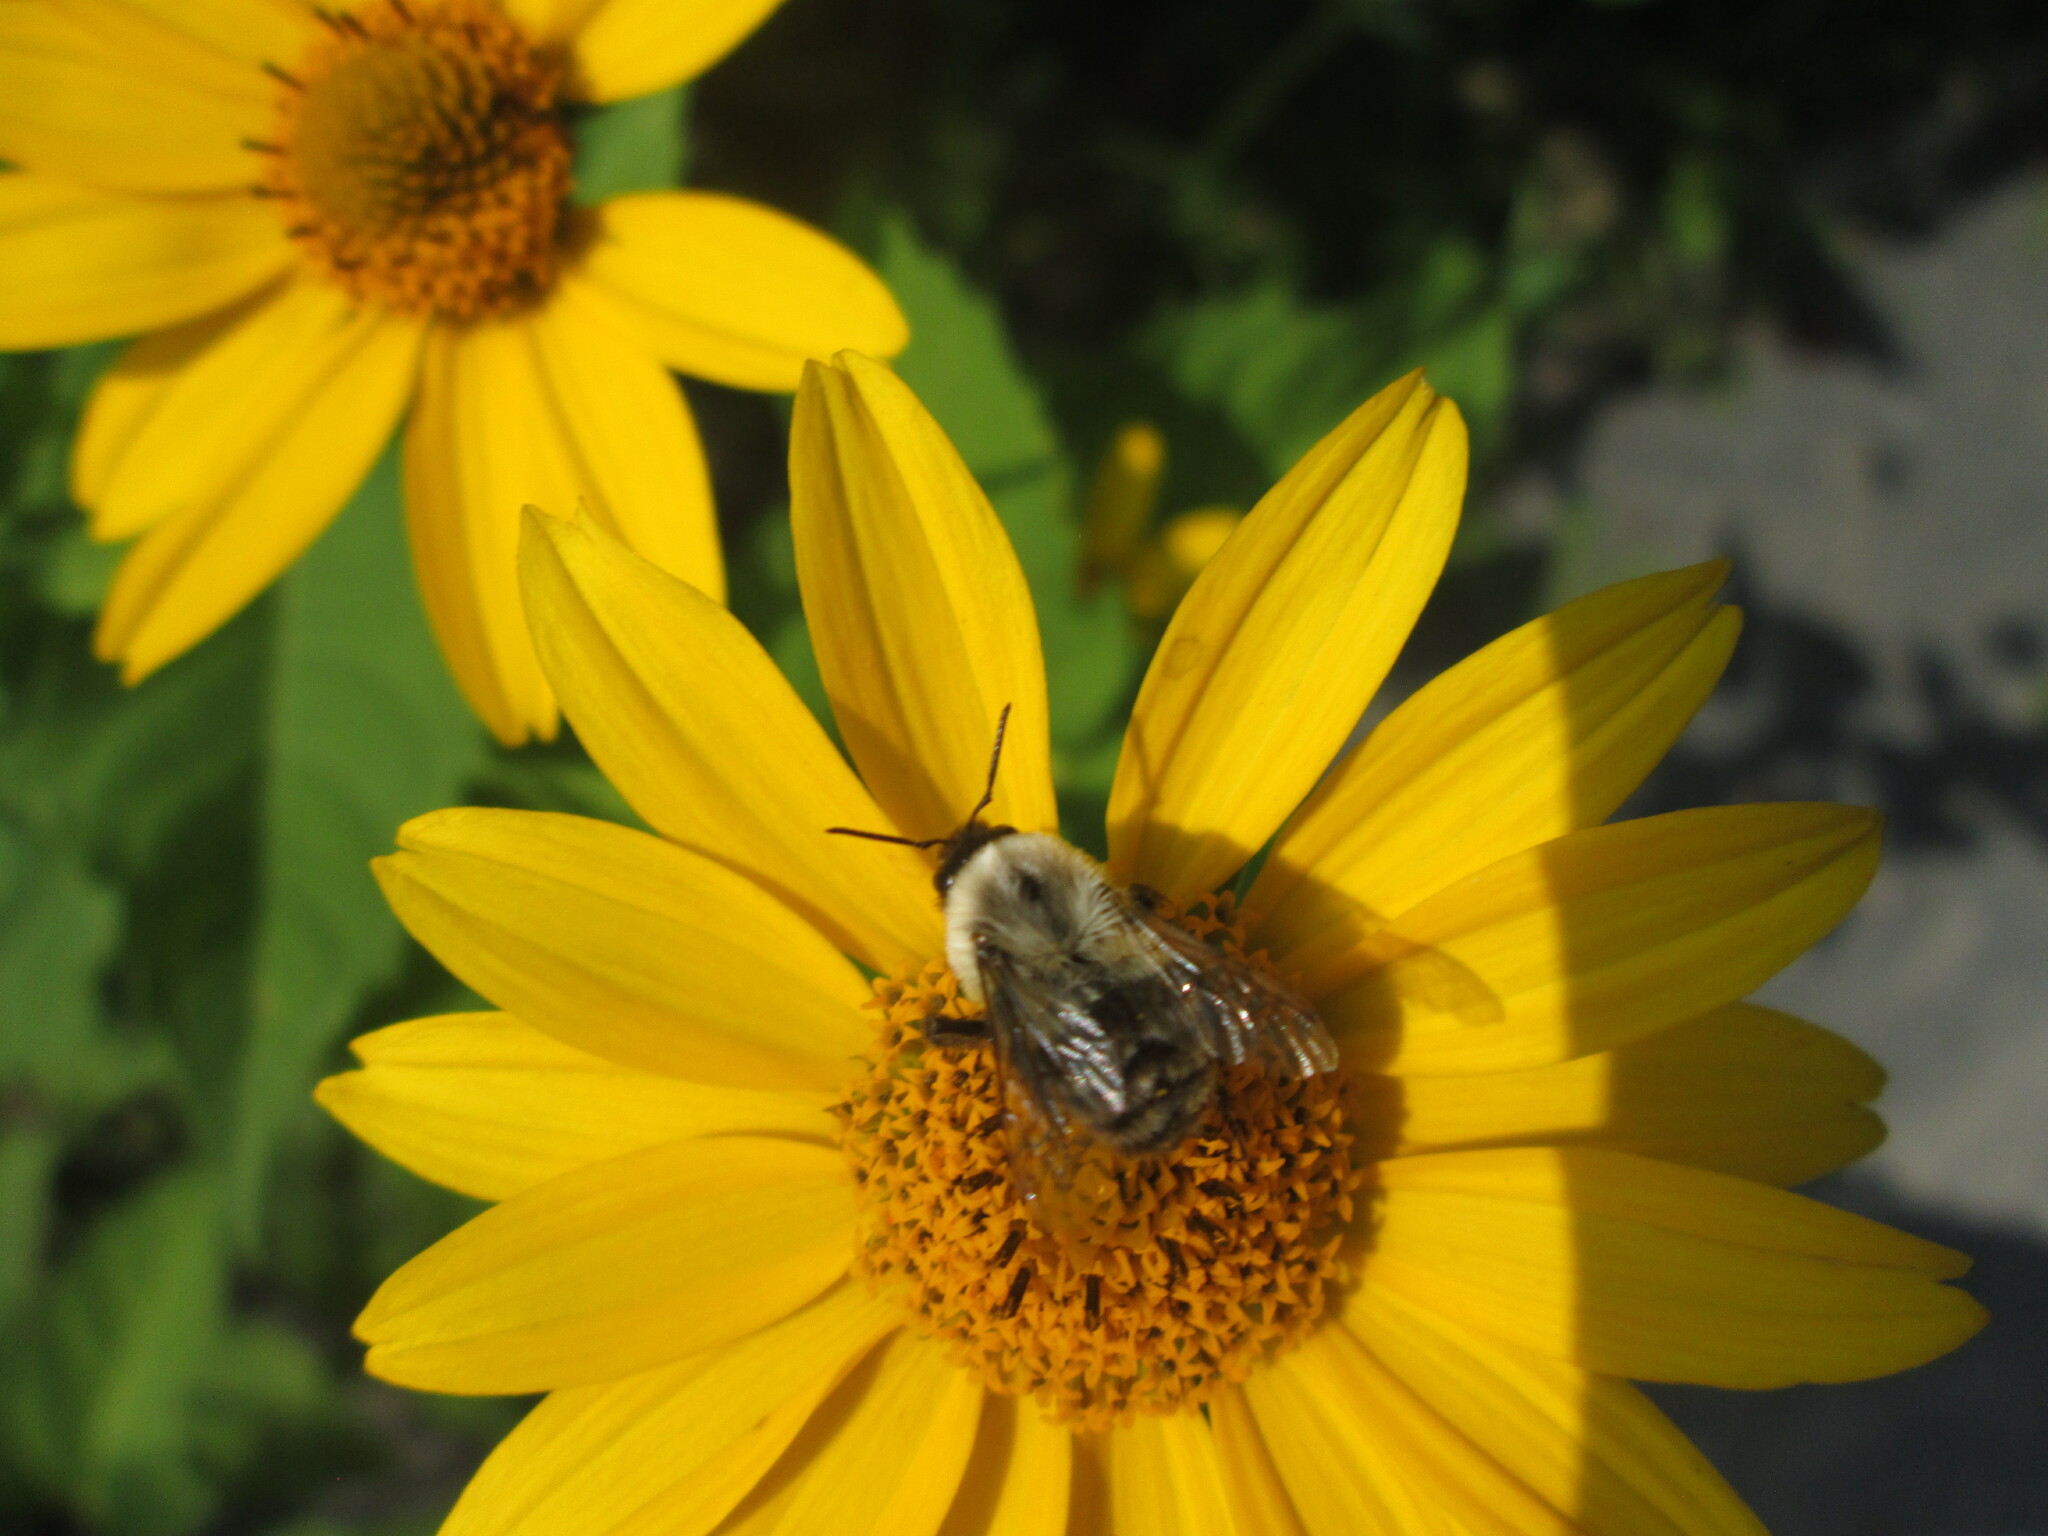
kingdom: Animalia
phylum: Arthropoda
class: Insecta
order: Hymenoptera
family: Apidae
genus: Bombus
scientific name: Bombus impatiens
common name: Common eastern bumble bee
